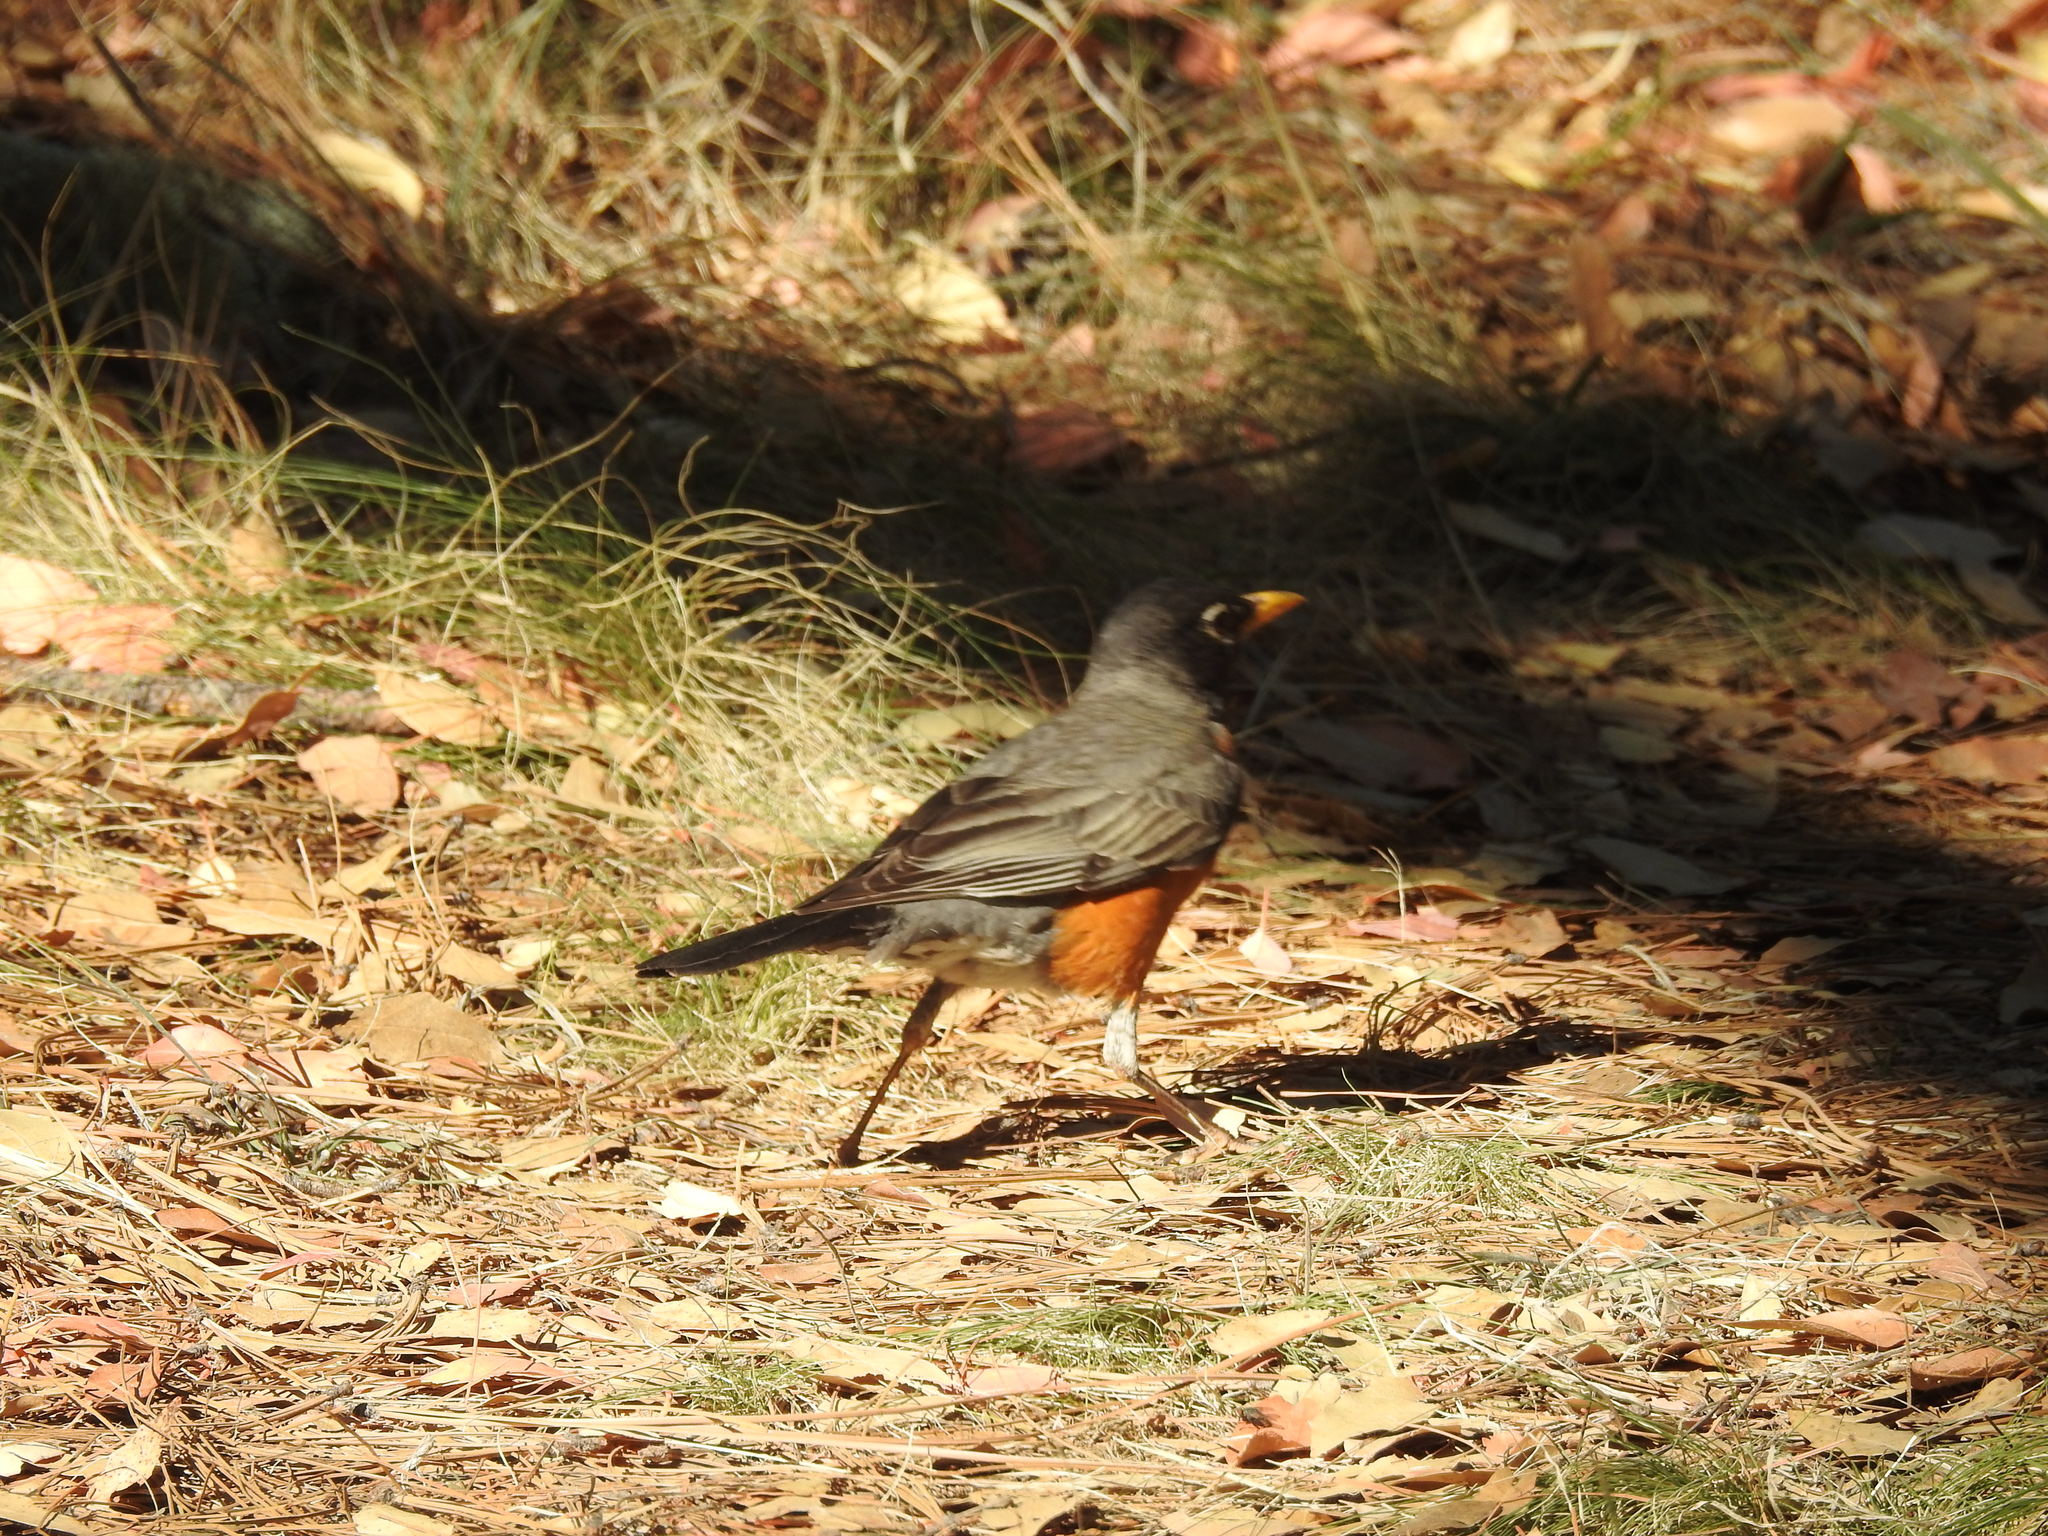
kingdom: Animalia
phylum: Chordata
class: Aves
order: Passeriformes
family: Turdidae
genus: Turdus
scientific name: Turdus migratorius
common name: American robin
